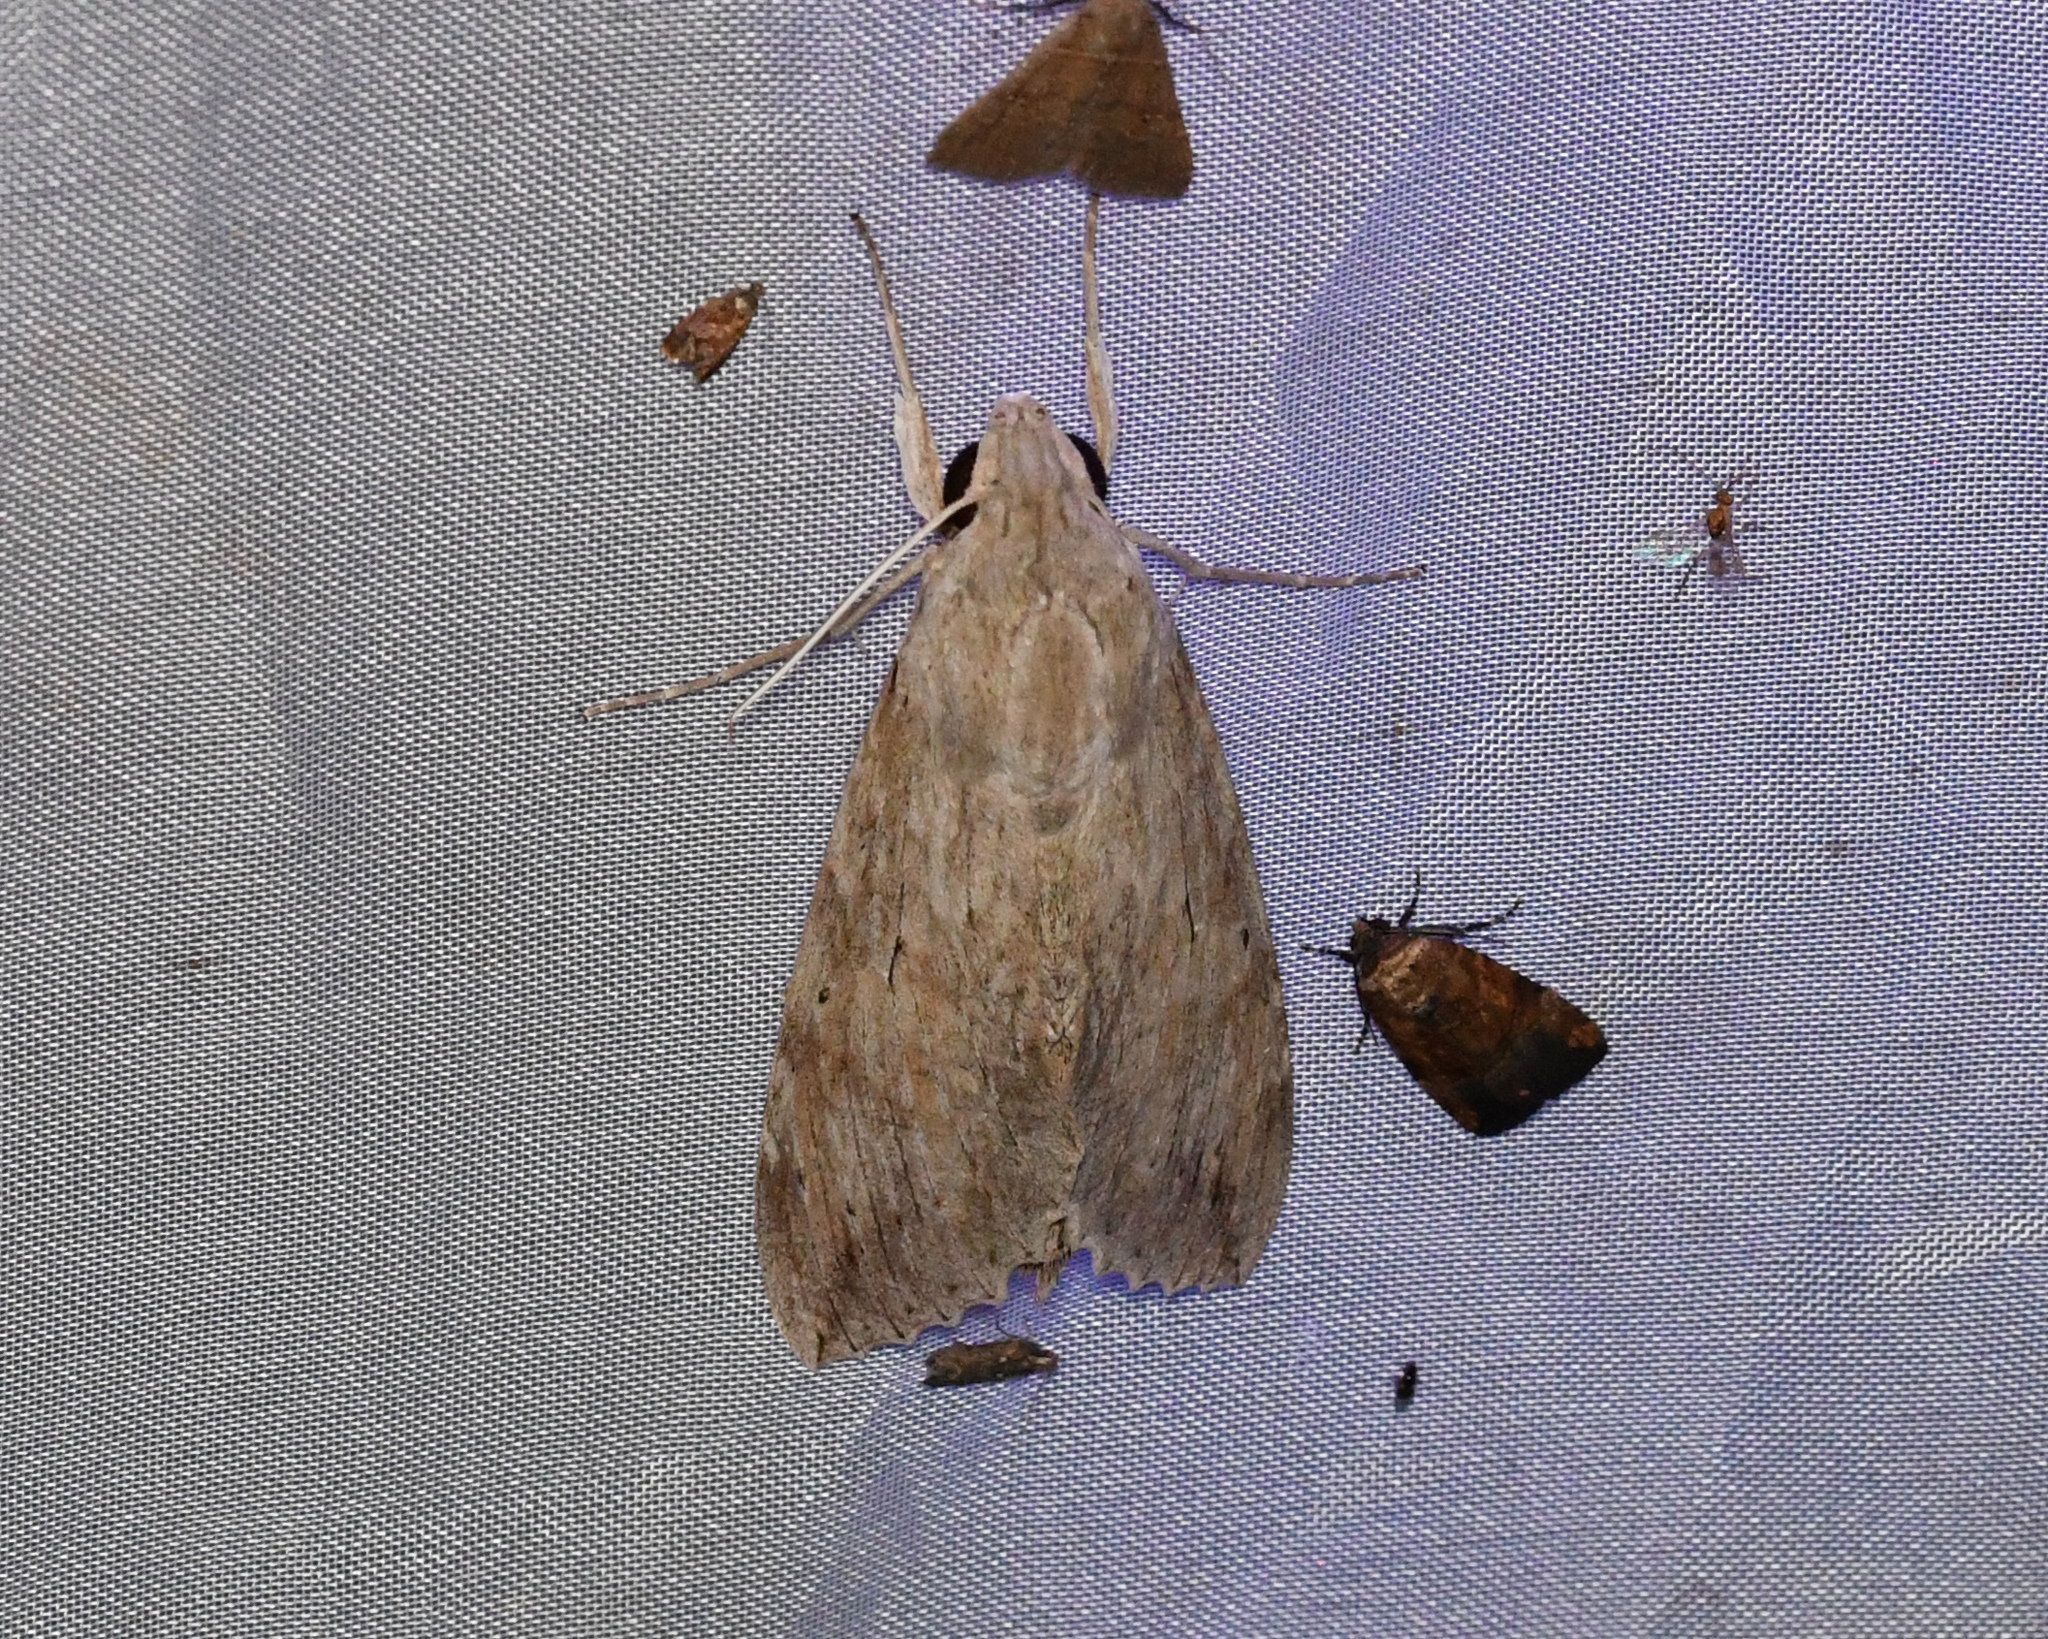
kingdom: Animalia
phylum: Arthropoda
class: Insecta
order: Lepidoptera
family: Sphingidae
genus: Erinnyis
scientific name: Erinnyis ello
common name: Ello sphinx
